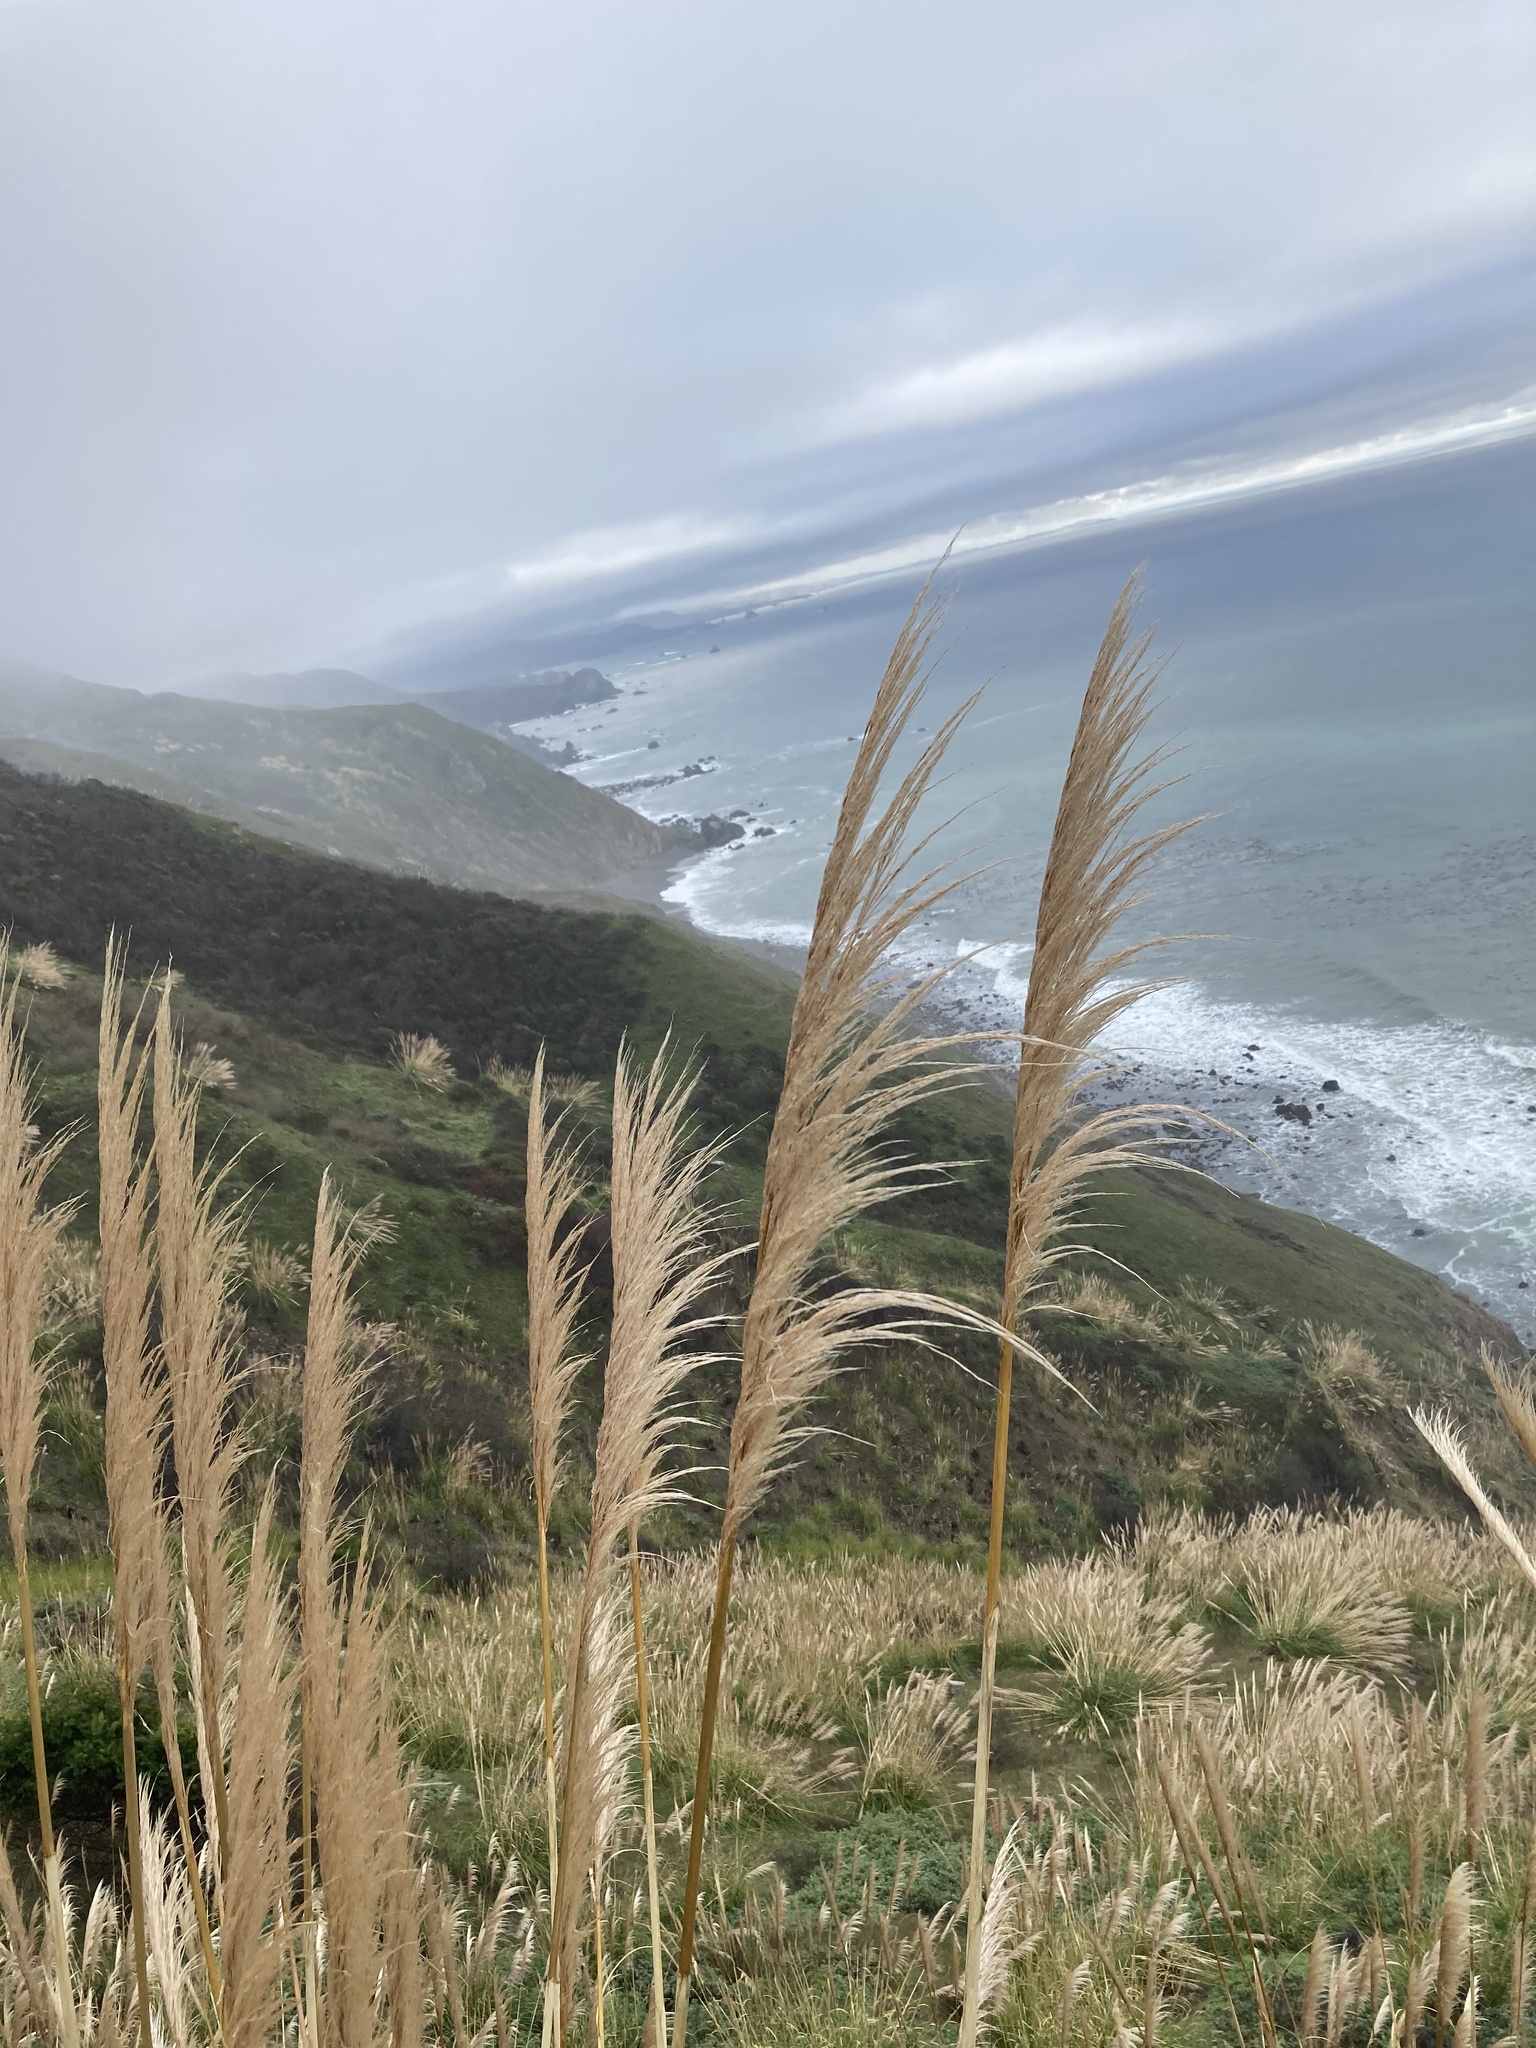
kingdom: Plantae
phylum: Tracheophyta
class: Liliopsida
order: Poales
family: Poaceae
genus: Cortaderia
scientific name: Cortaderia jubata
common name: Purple pampas grass
